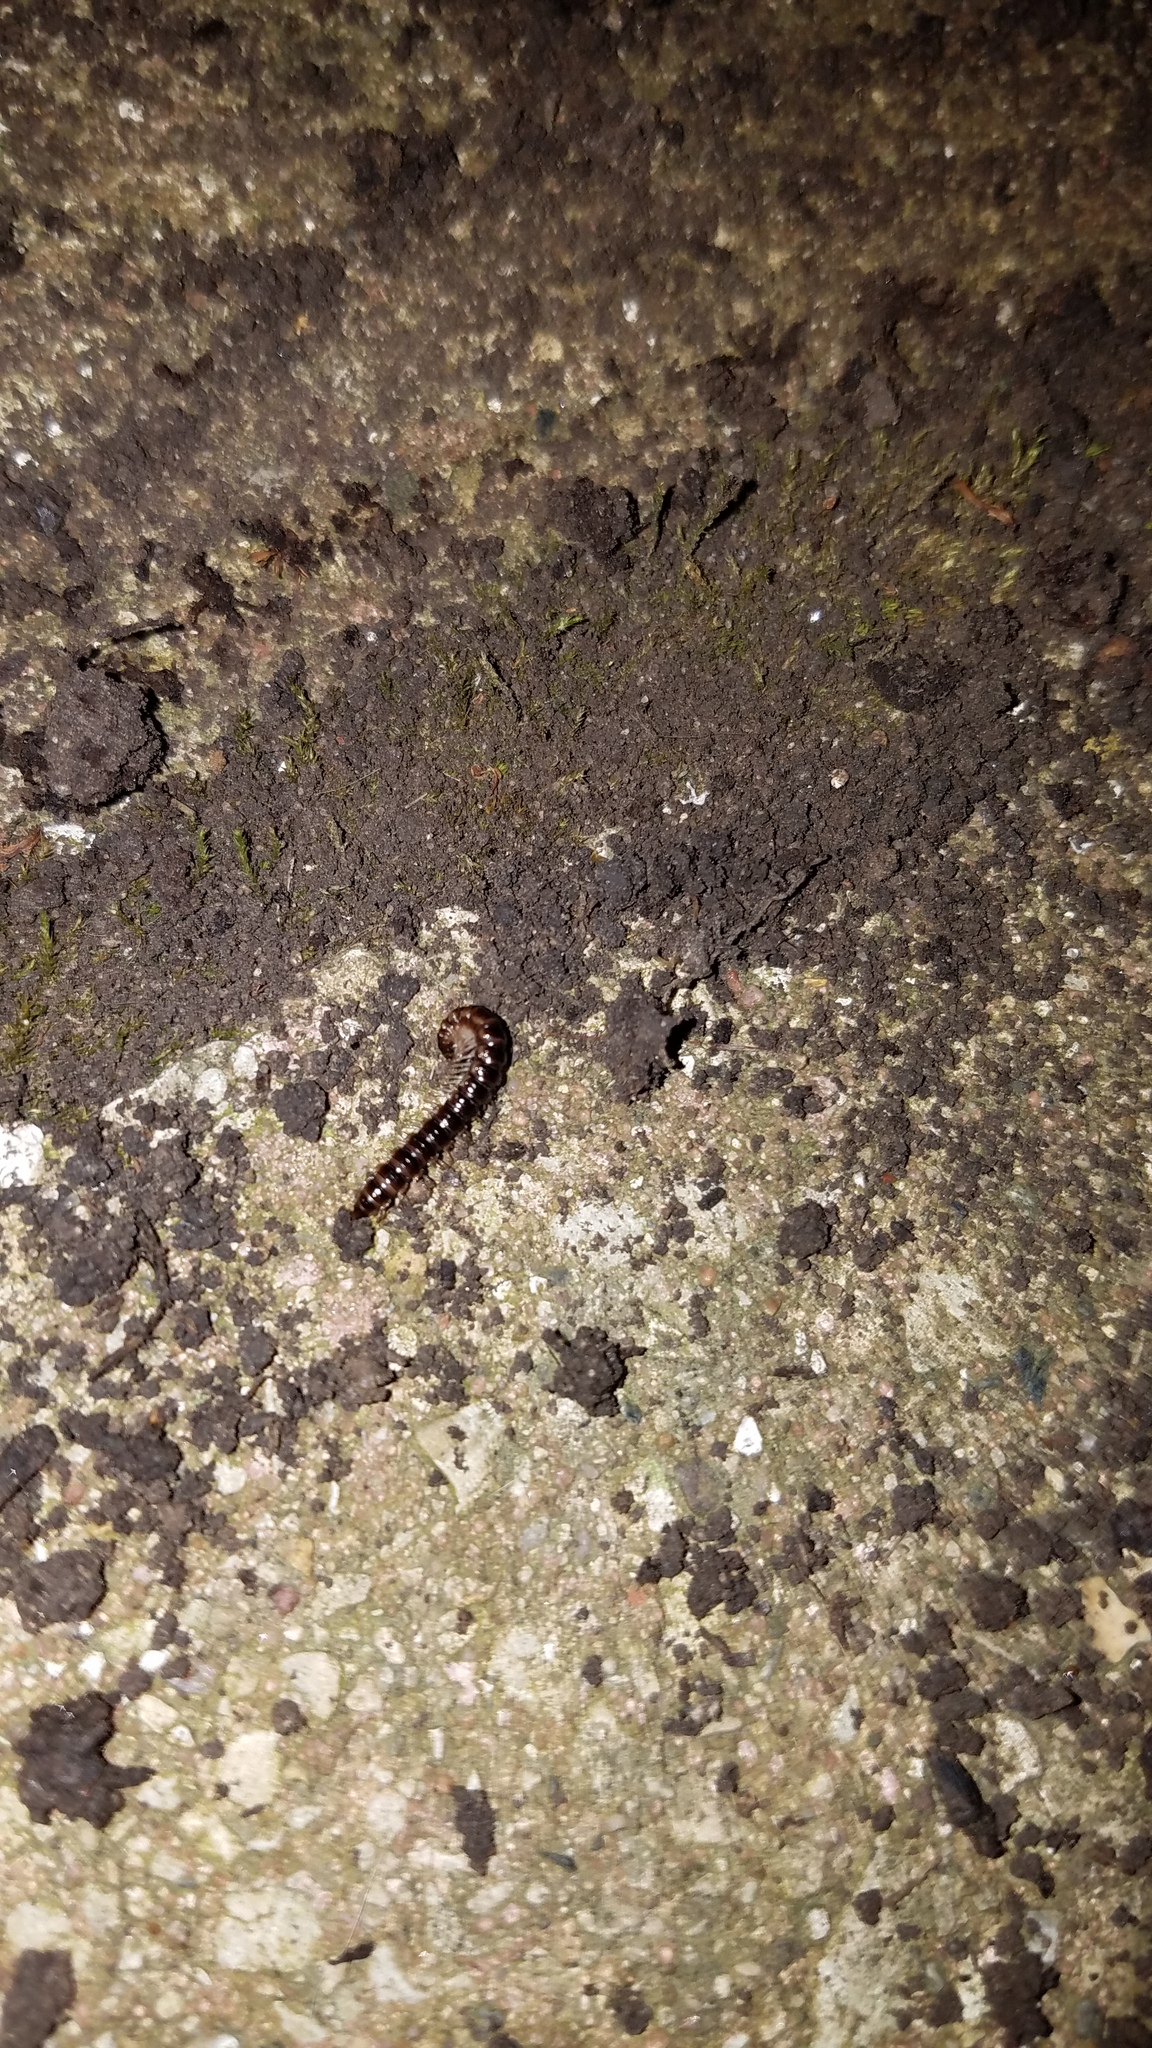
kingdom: Animalia
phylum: Arthropoda
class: Diplopoda
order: Polydesmida
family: Paradoxosomatidae
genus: Oxidus
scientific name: Oxidus gracilis
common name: Greenhouse millipede
